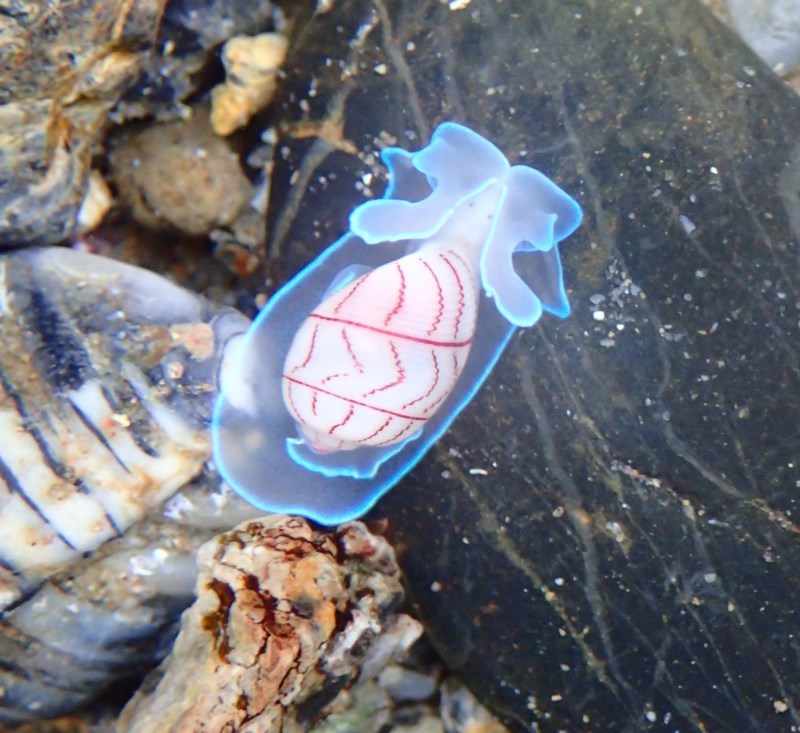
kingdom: Animalia
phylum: Mollusca
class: Gastropoda
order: Cephalaspidea
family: Aplustridae
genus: Bullina
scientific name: Bullina lineata
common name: Lined bubble snail
